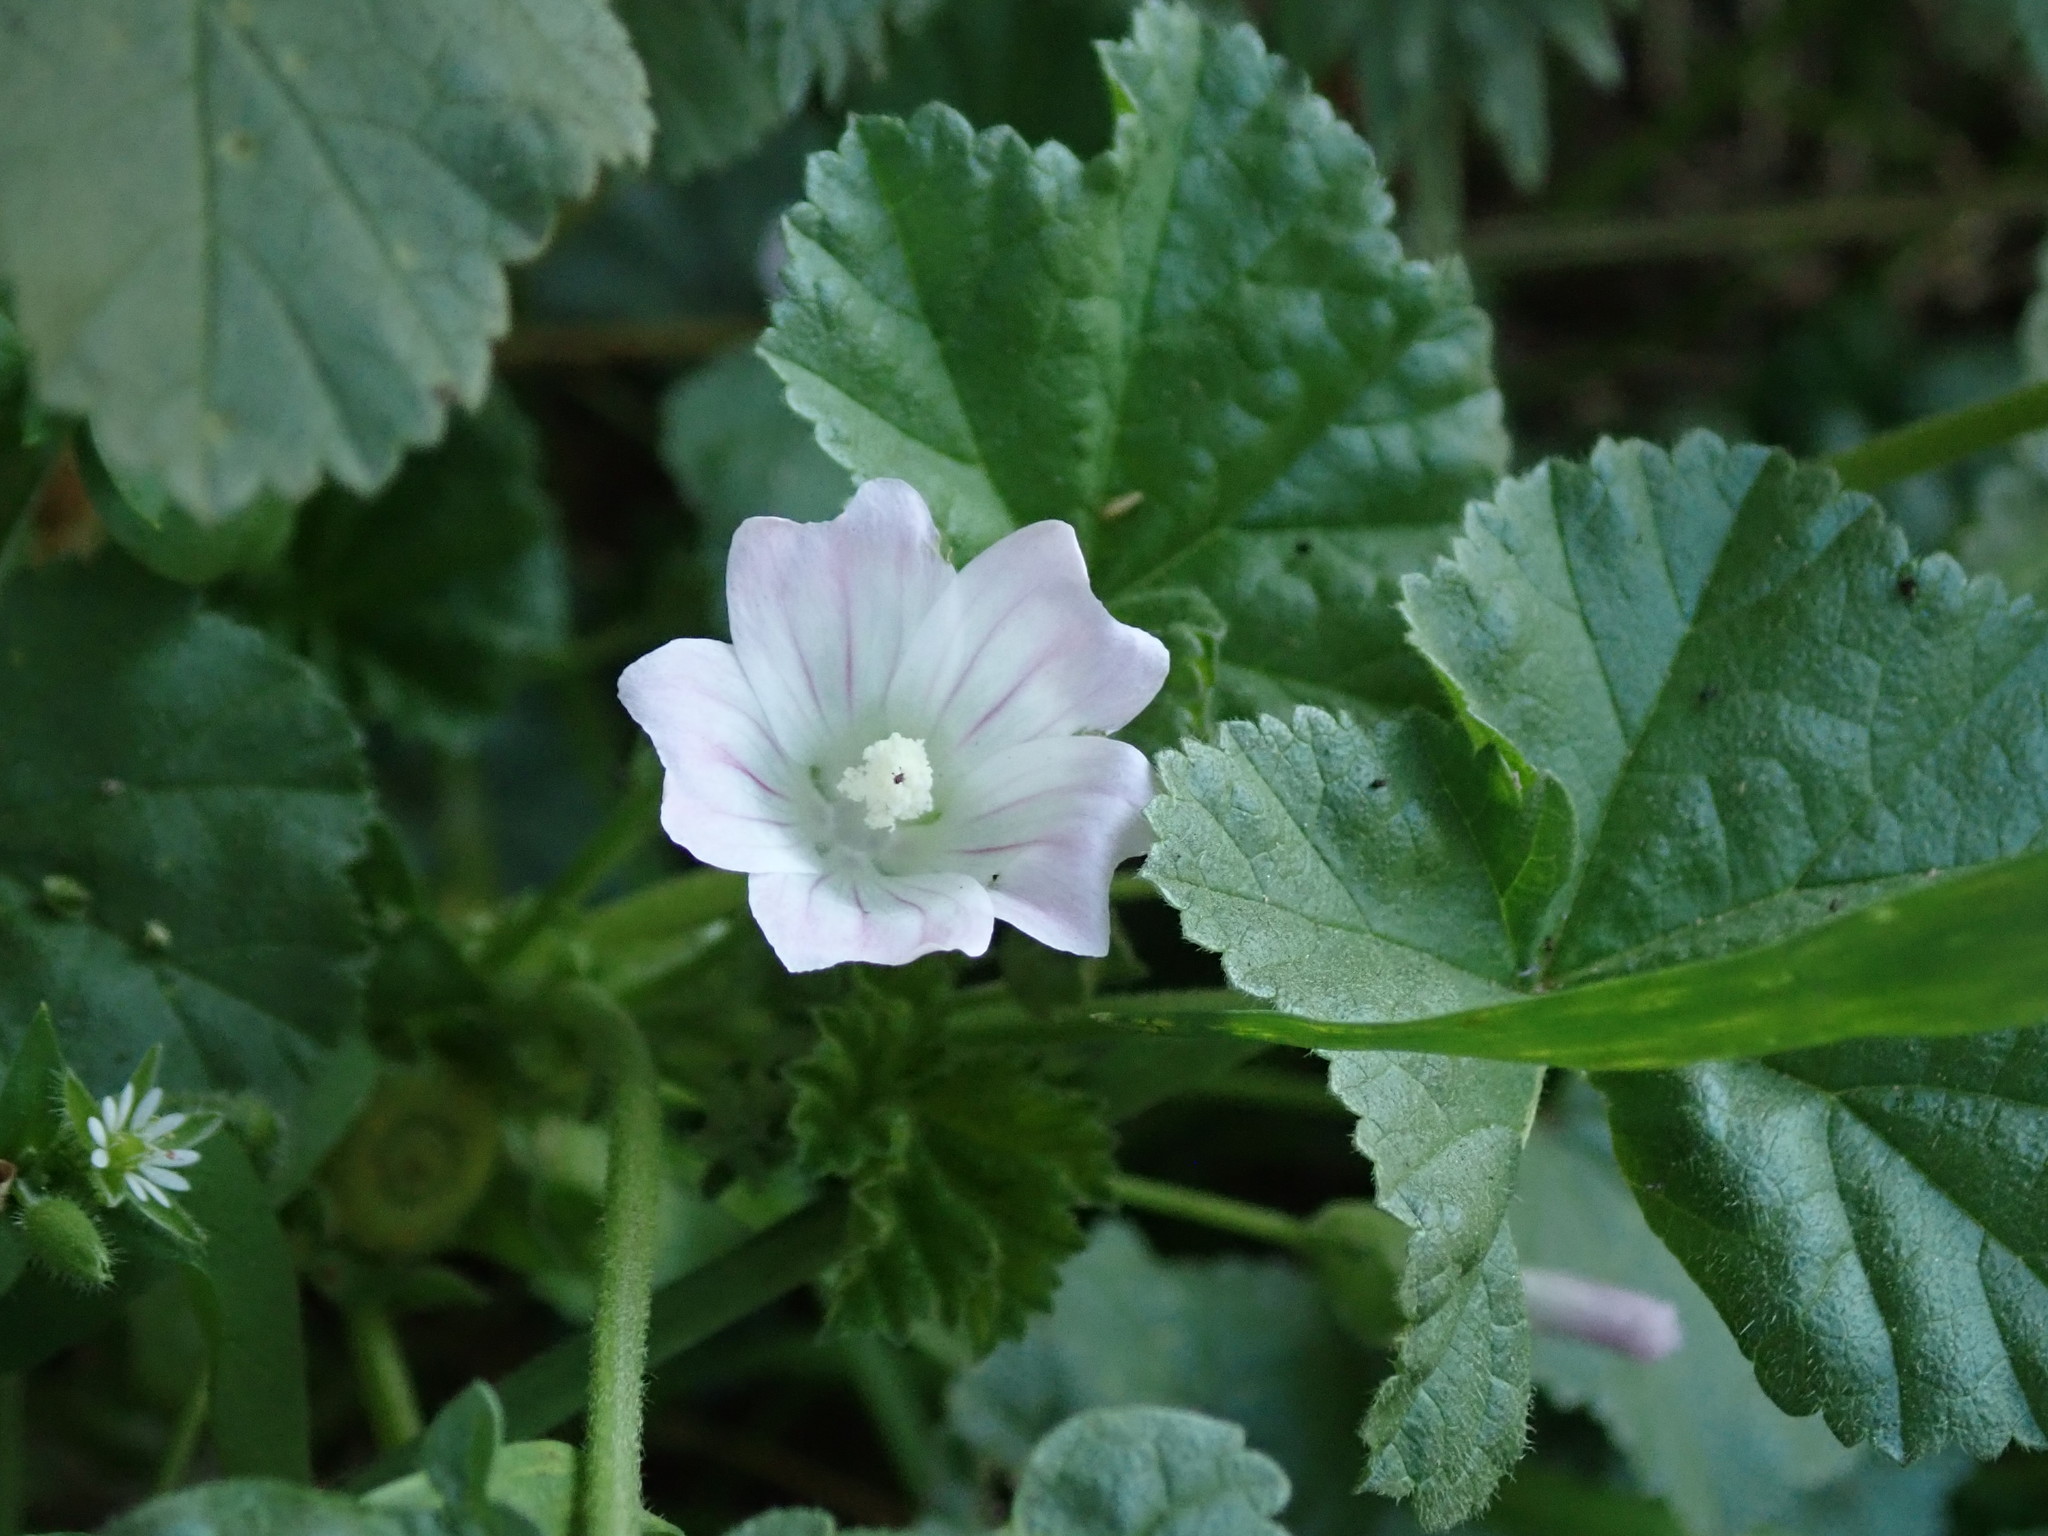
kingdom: Plantae
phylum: Tracheophyta
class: Magnoliopsida
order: Malvales
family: Malvaceae
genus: Malva
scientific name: Malva neglecta
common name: Common mallow
